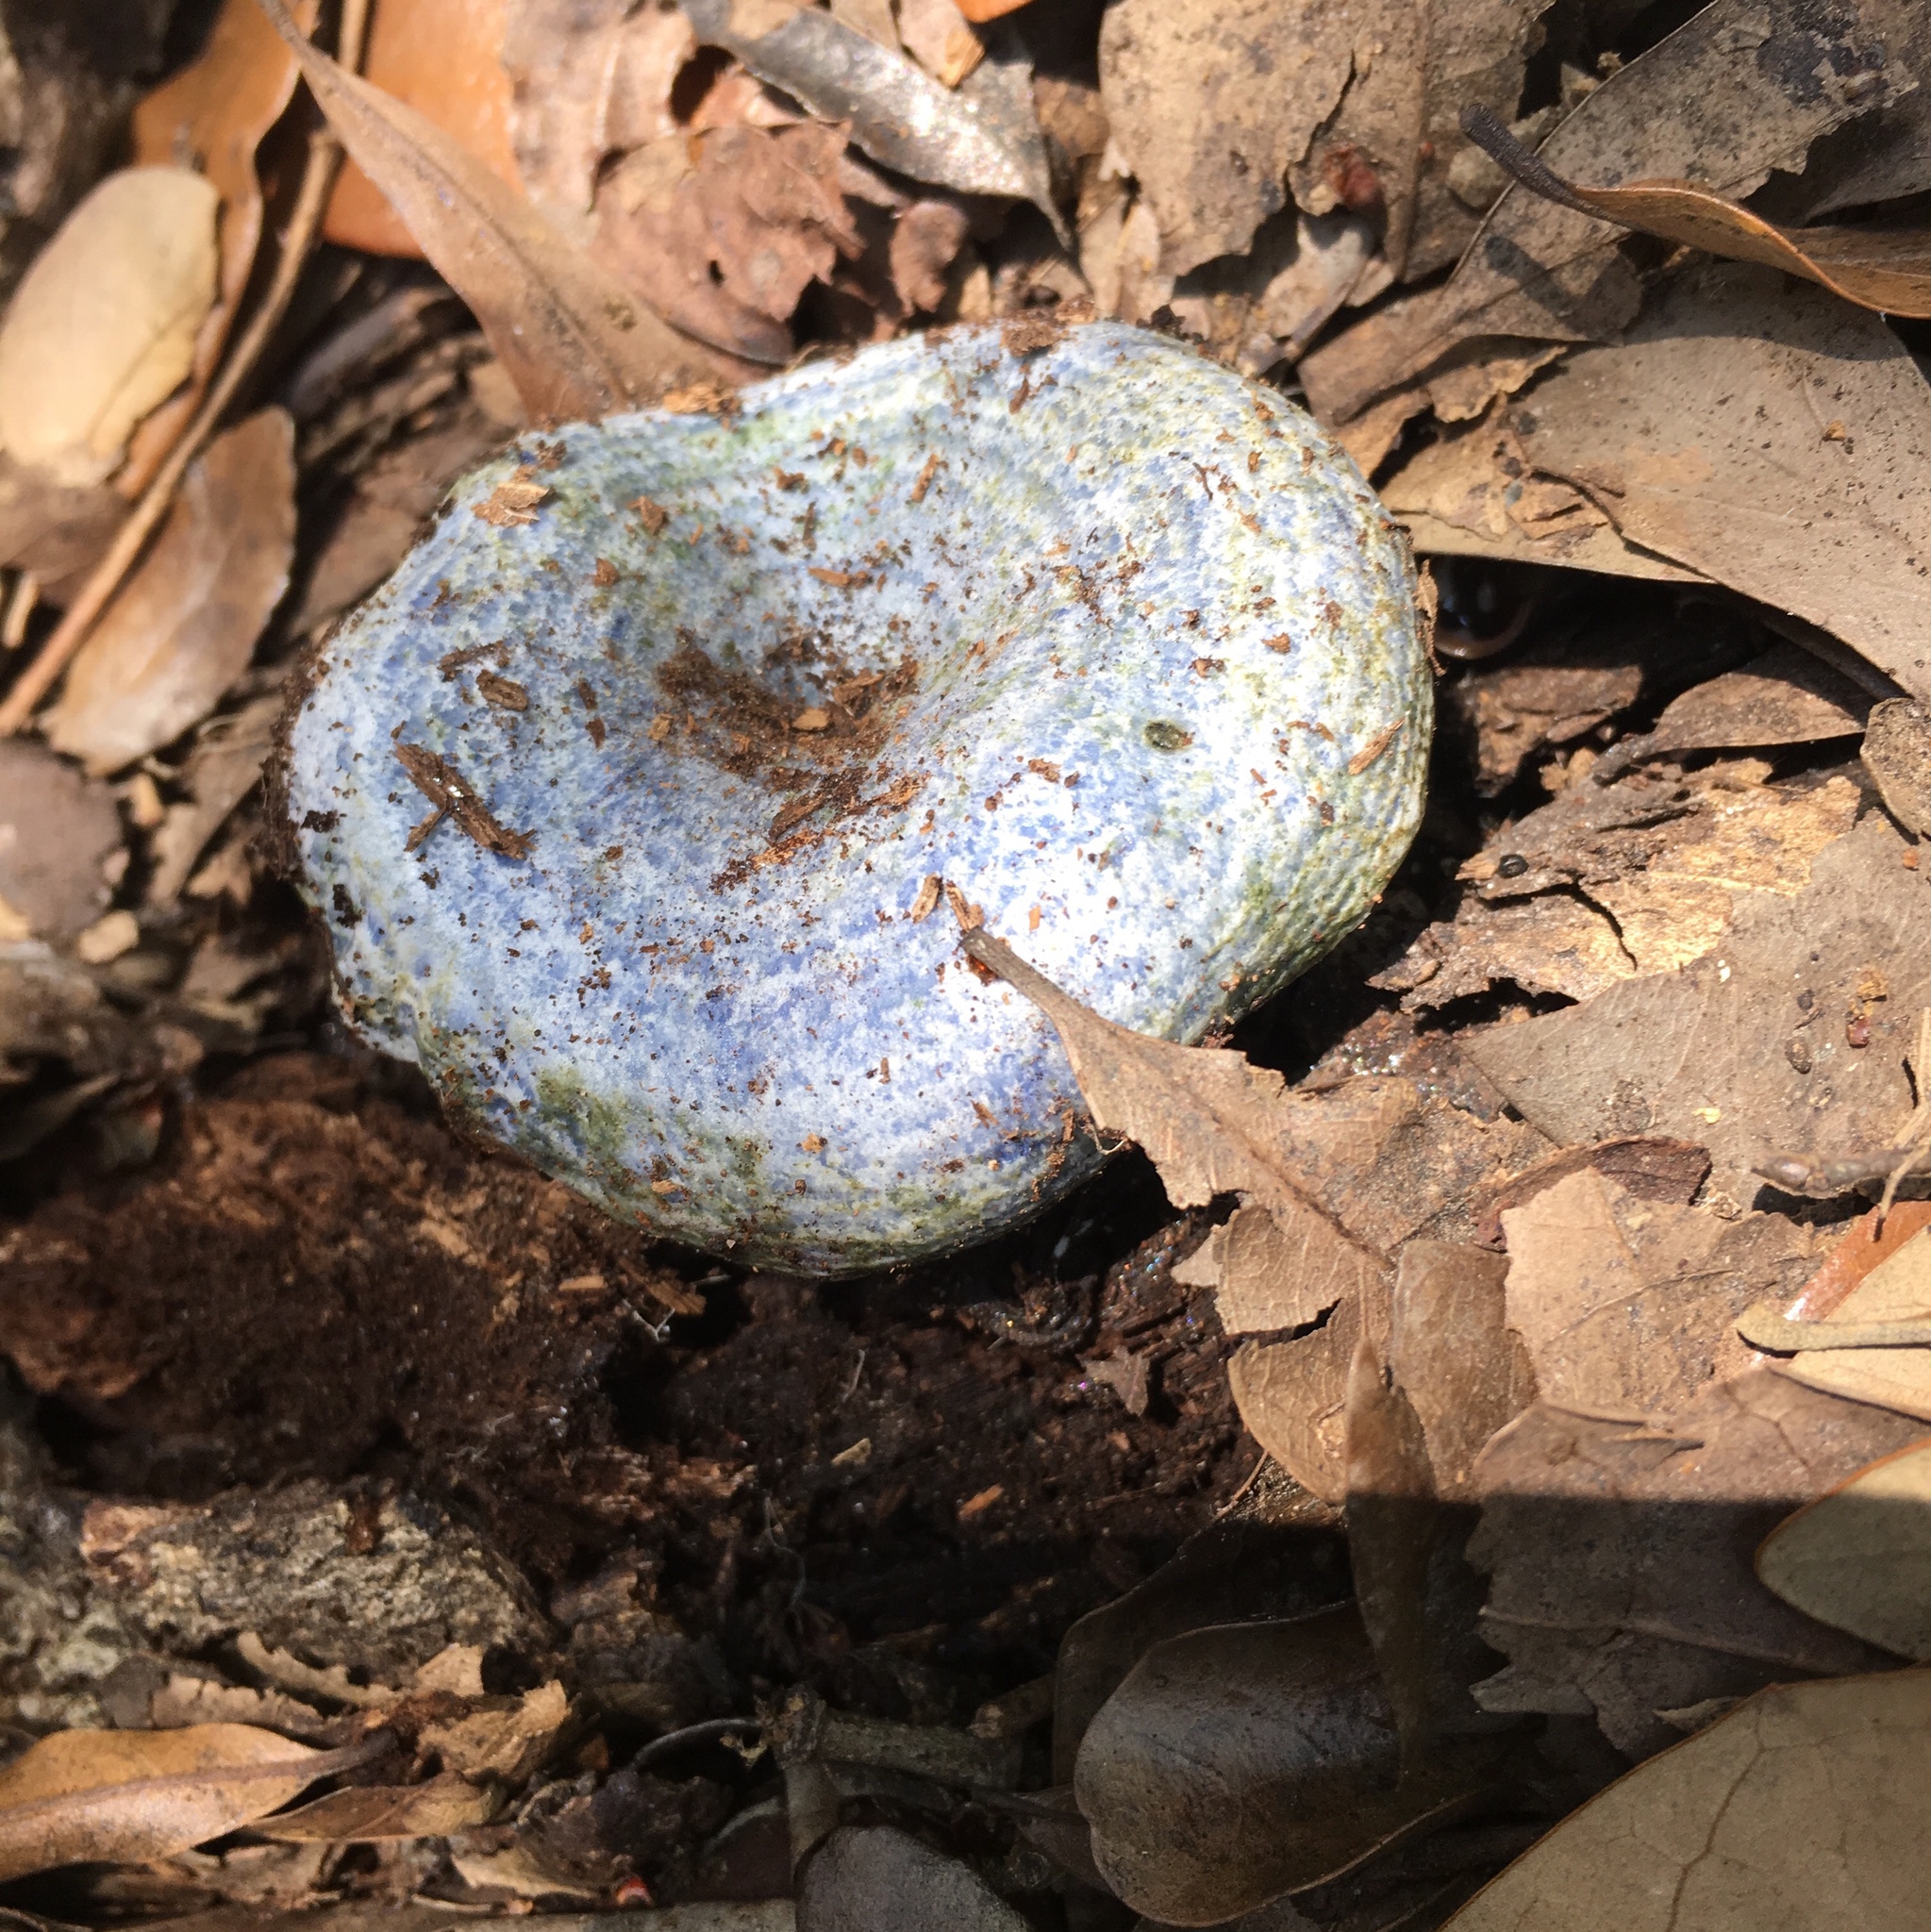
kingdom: Fungi
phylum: Basidiomycota
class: Agaricomycetes
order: Russulales
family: Russulaceae
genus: Lactarius
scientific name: Lactarius indigo
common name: Indigo milk cap
